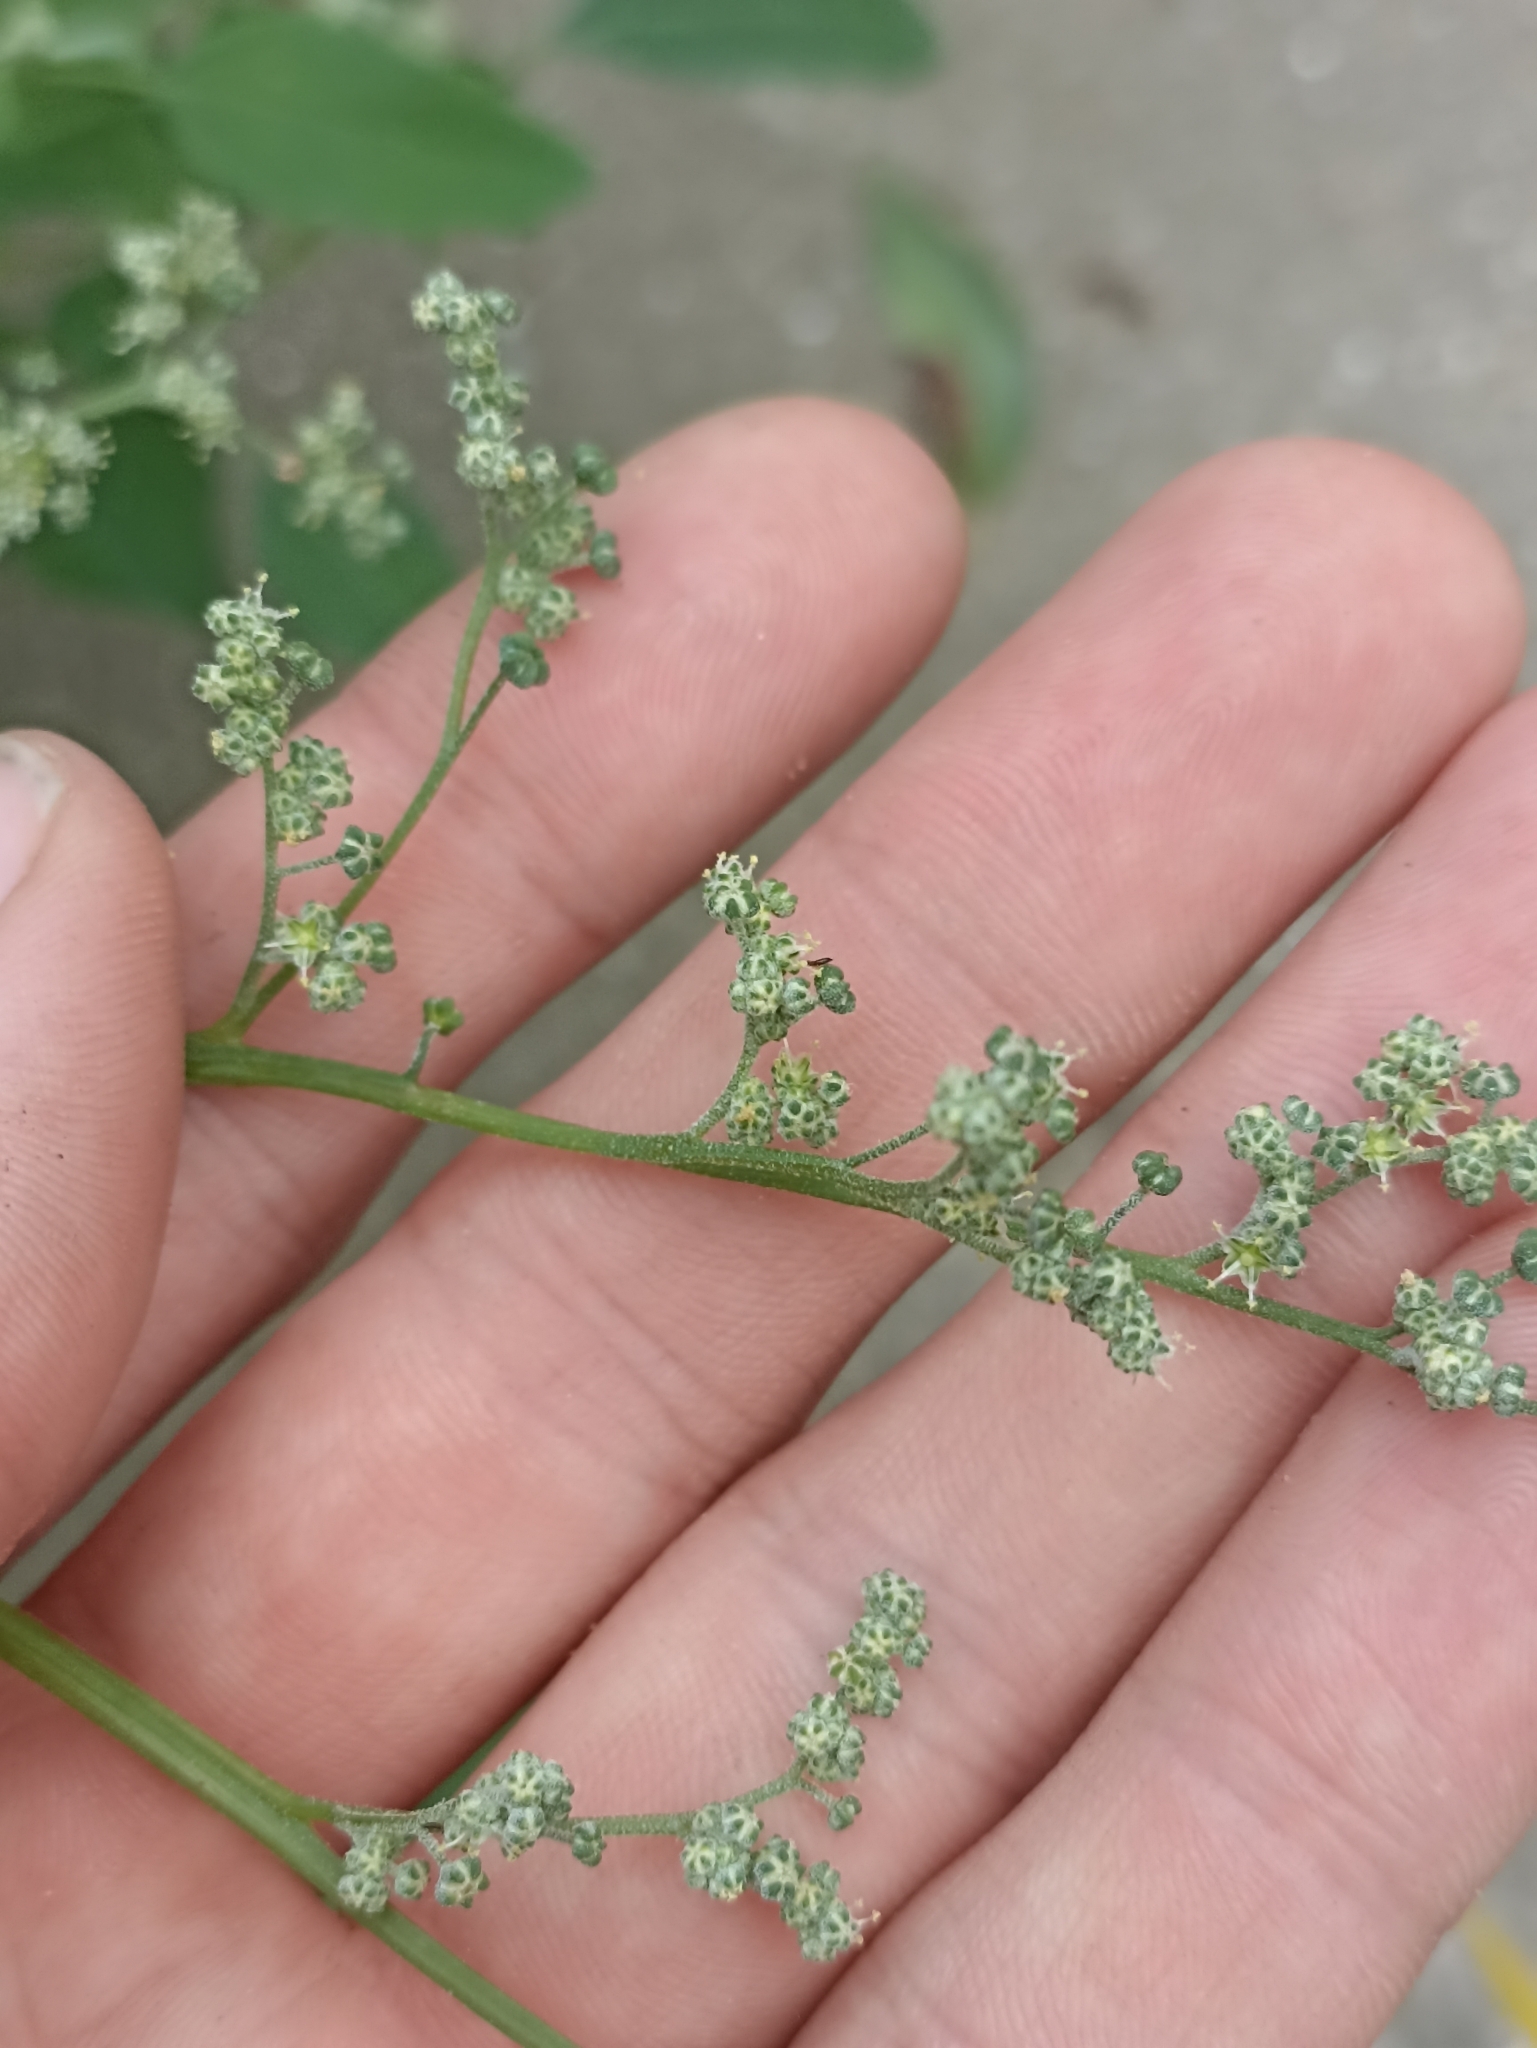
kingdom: Plantae
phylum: Tracheophyta
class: Magnoliopsida
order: Caryophyllales
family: Amaranthaceae
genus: Chenopodium
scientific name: Chenopodium album
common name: Fat-hen
